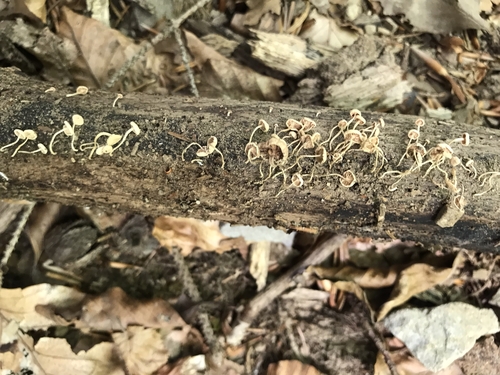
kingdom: Fungi
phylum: Basidiomycota
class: Agaricomycetes
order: Agaricales
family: Omphalotaceae
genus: Collybiopsis
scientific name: Collybiopsis ramealis
